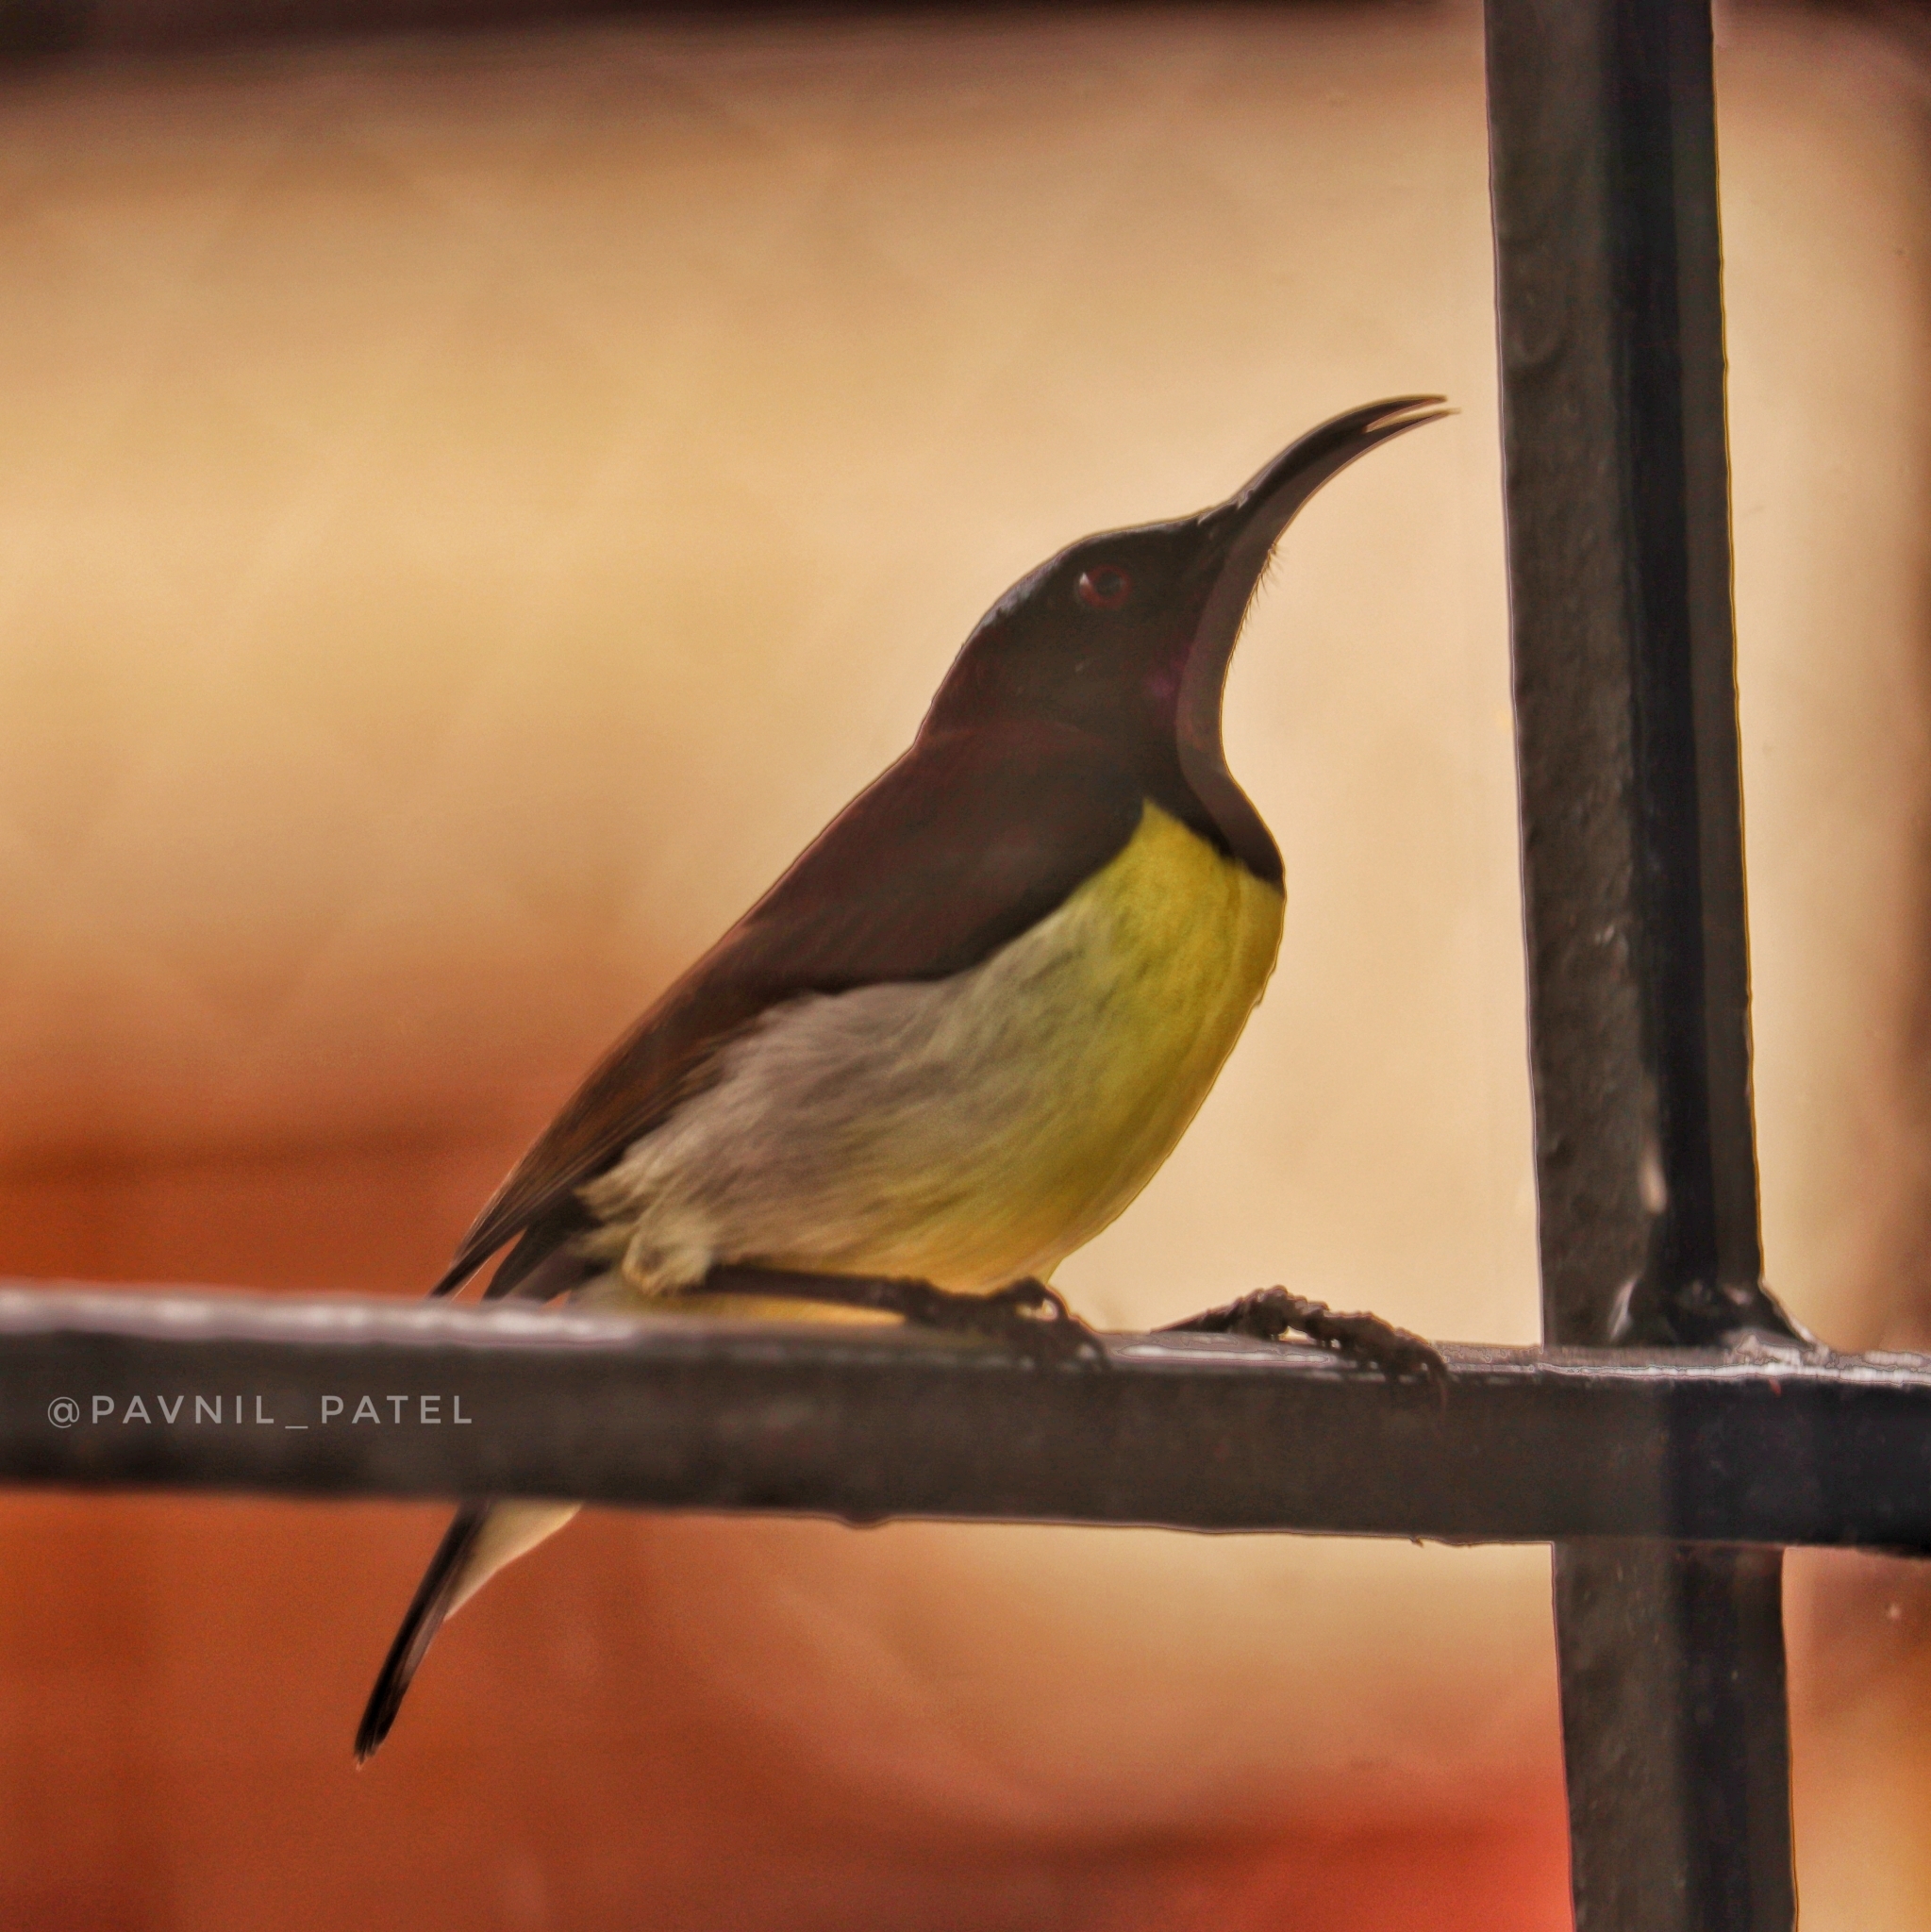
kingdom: Animalia
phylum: Chordata
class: Aves
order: Passeriformes
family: Nectariniidae
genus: Leptocoma
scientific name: Leptocoma zeylonica
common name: Purple-rumped sunbird
